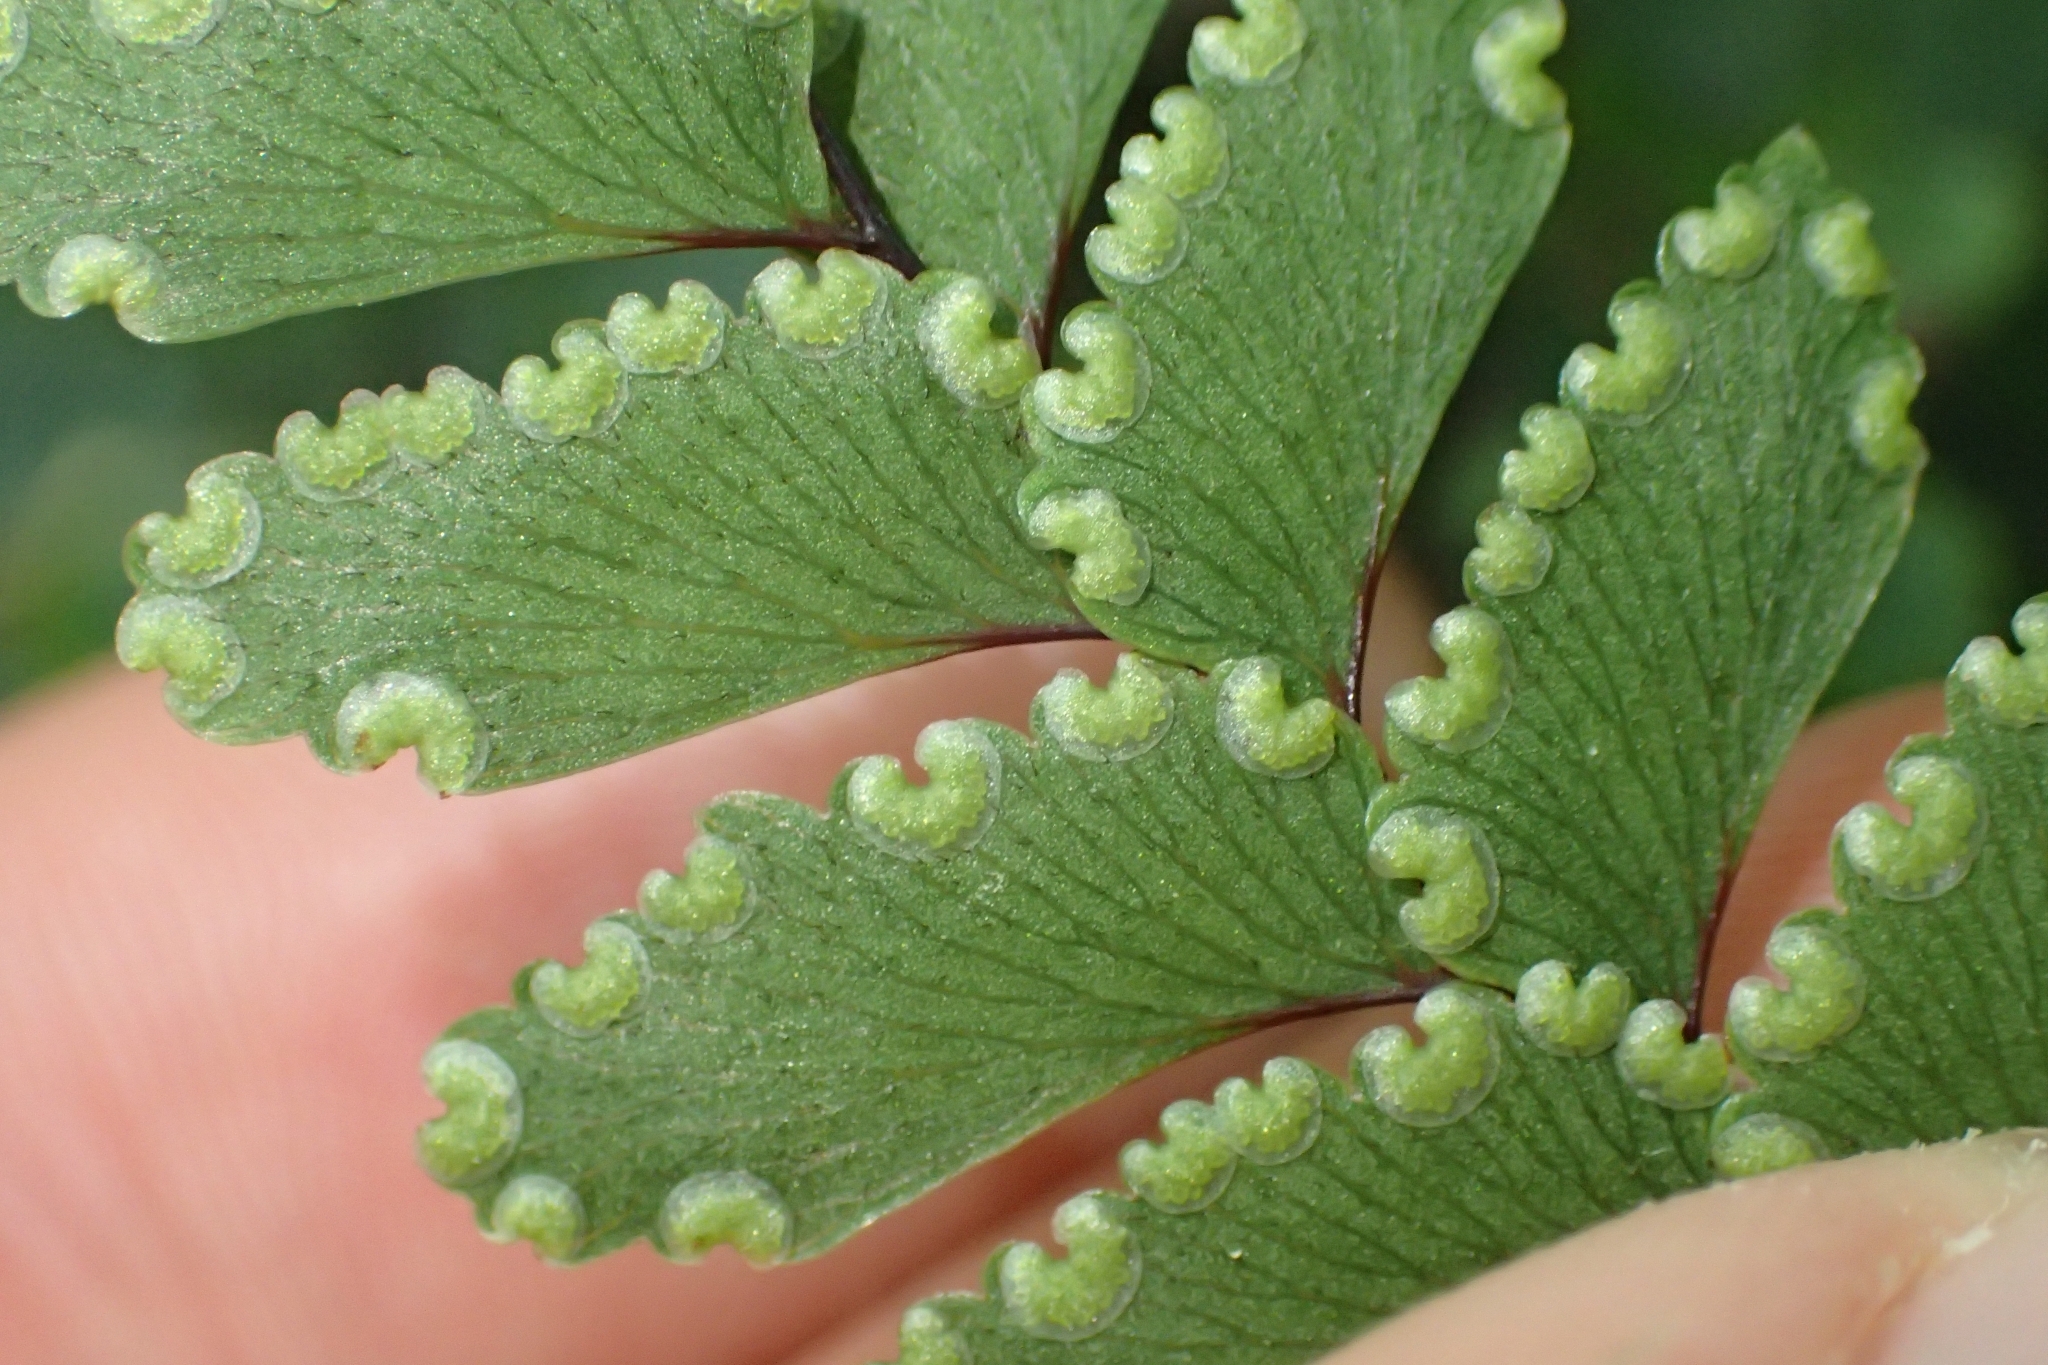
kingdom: Plantae
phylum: Tracheophyta
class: Polypodiopsida
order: Polypodiales
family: Pteridaceae
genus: Adiantum
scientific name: Adiantum fulvum
